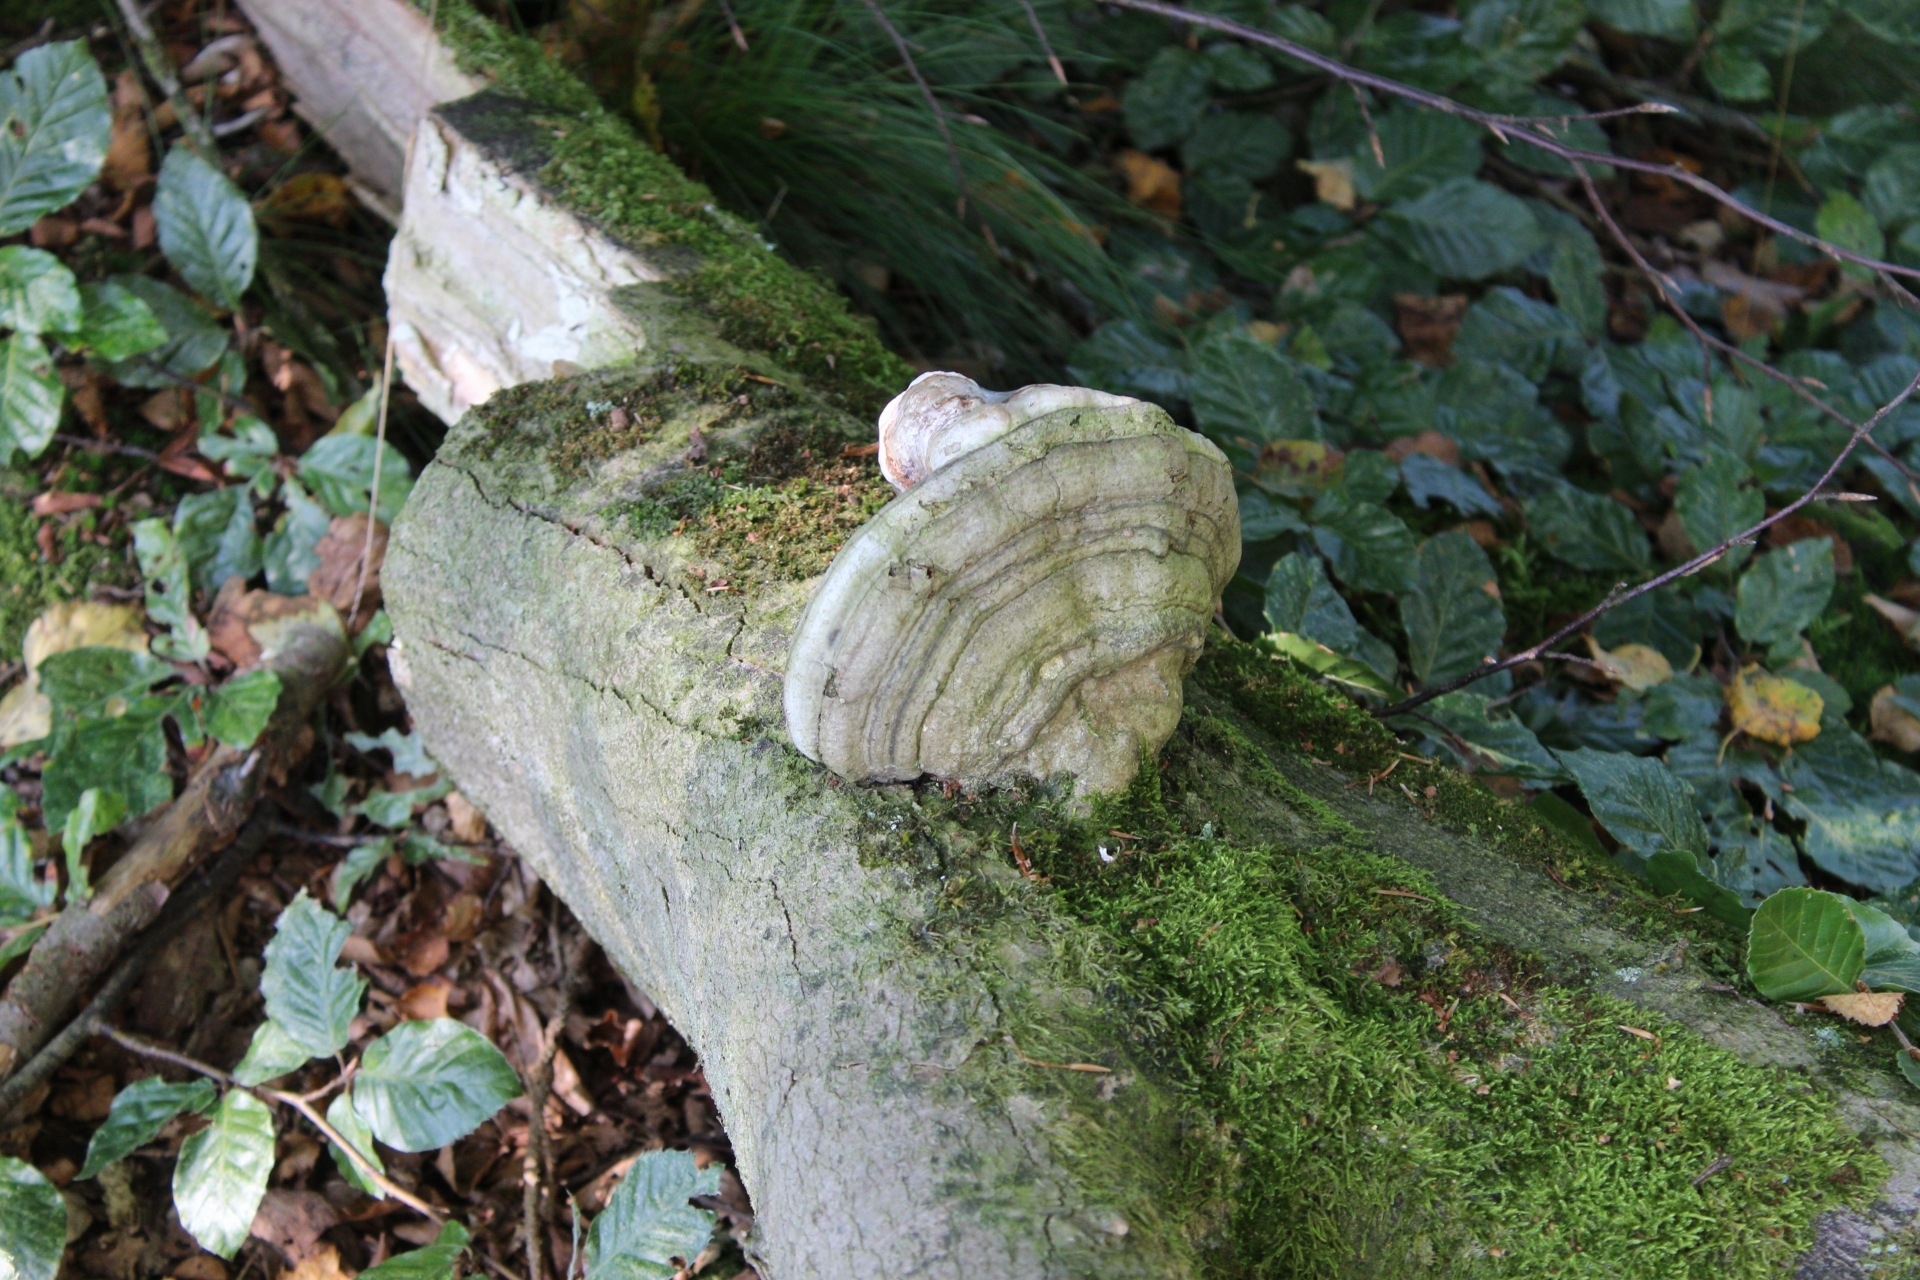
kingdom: Fungi
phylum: Basidiomycota
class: Agaricomycetes
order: Polyporales
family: Polyporaceae
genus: Fomes
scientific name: Fomes fomentarius
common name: Hoof fungus
